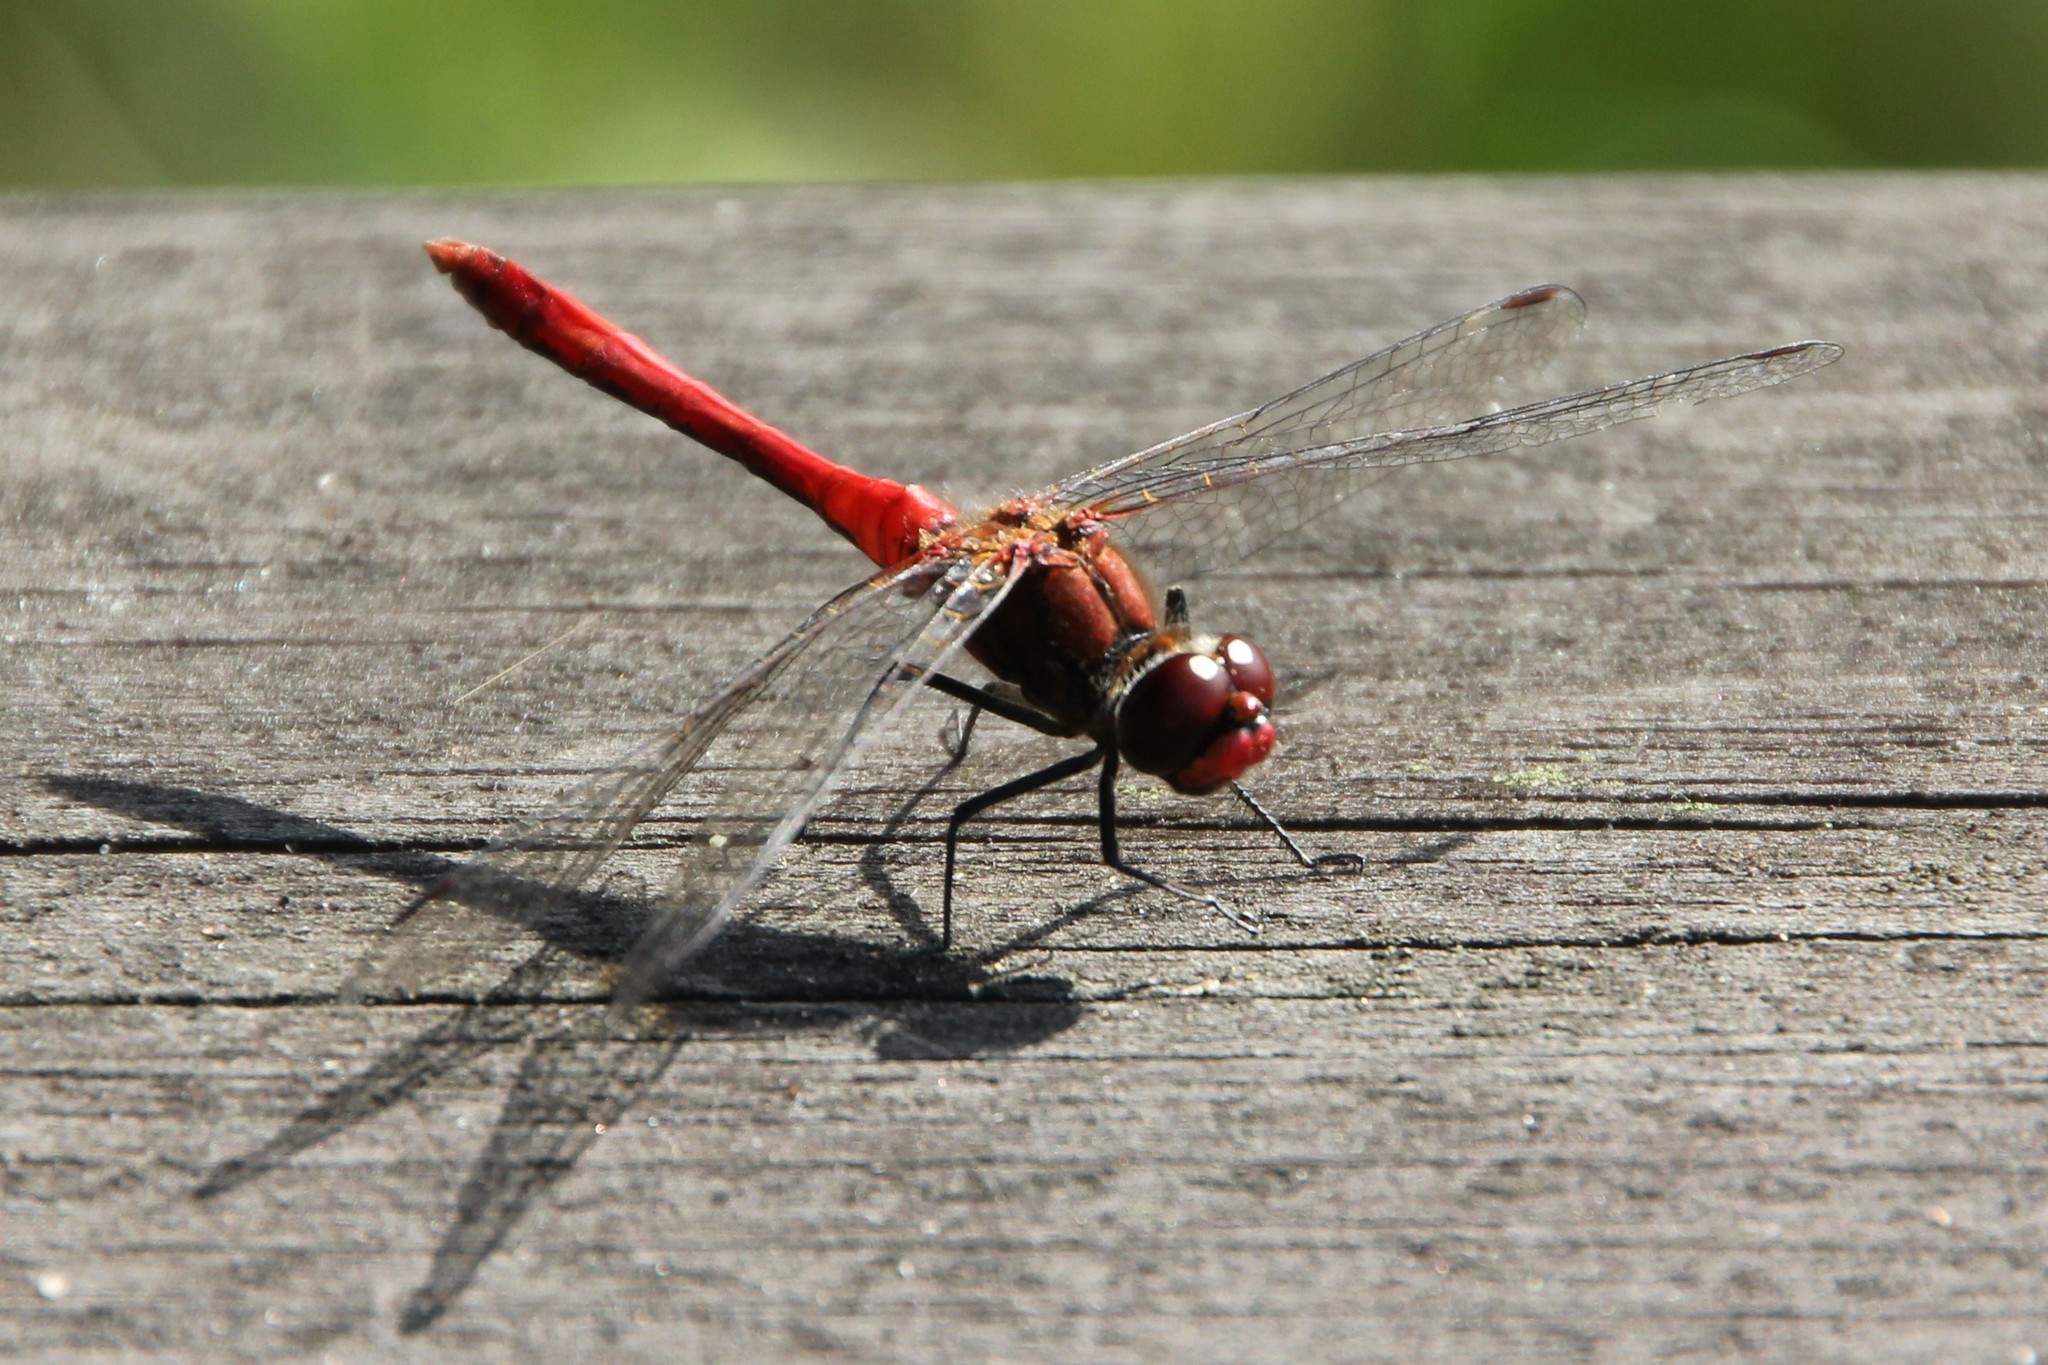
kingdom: Animalia
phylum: Arthropoda
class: Insecta
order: Odonata
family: Libellulidae
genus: Sympetrum
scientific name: Sympetrum sanguineum
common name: Ruddy darter
